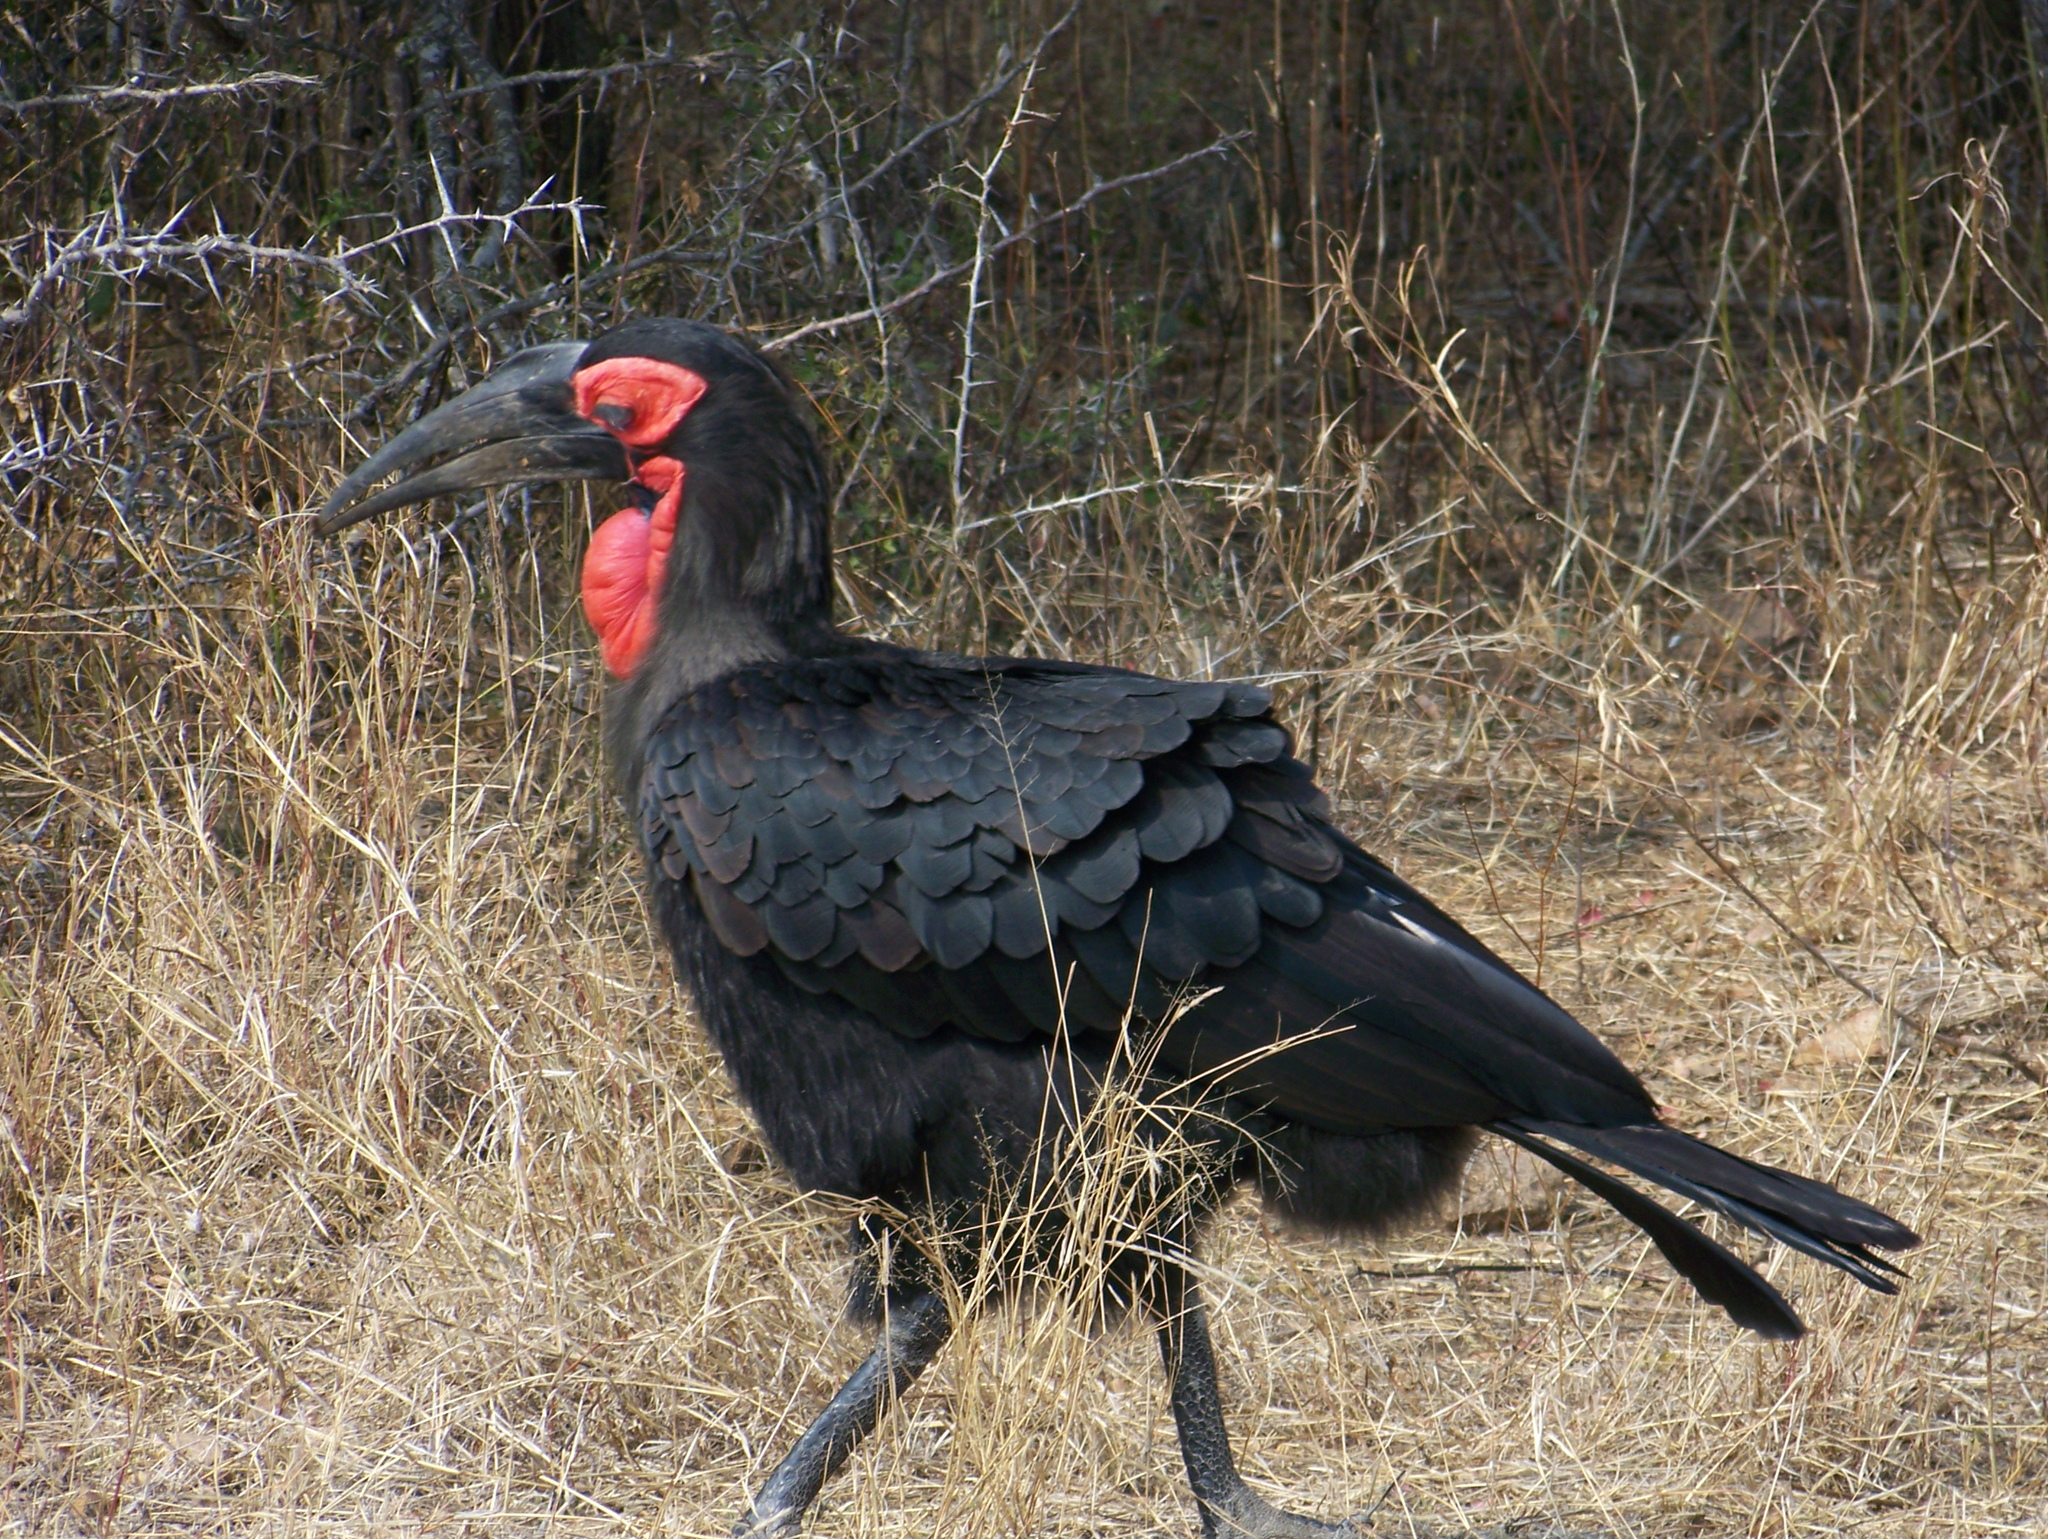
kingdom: Animalia
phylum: Chordata
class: Aves
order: Bucerotiformes
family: Bucorvidae
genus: Bucorvus
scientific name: Bucorvus leadbeateri
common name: Southern ground-hornbill
